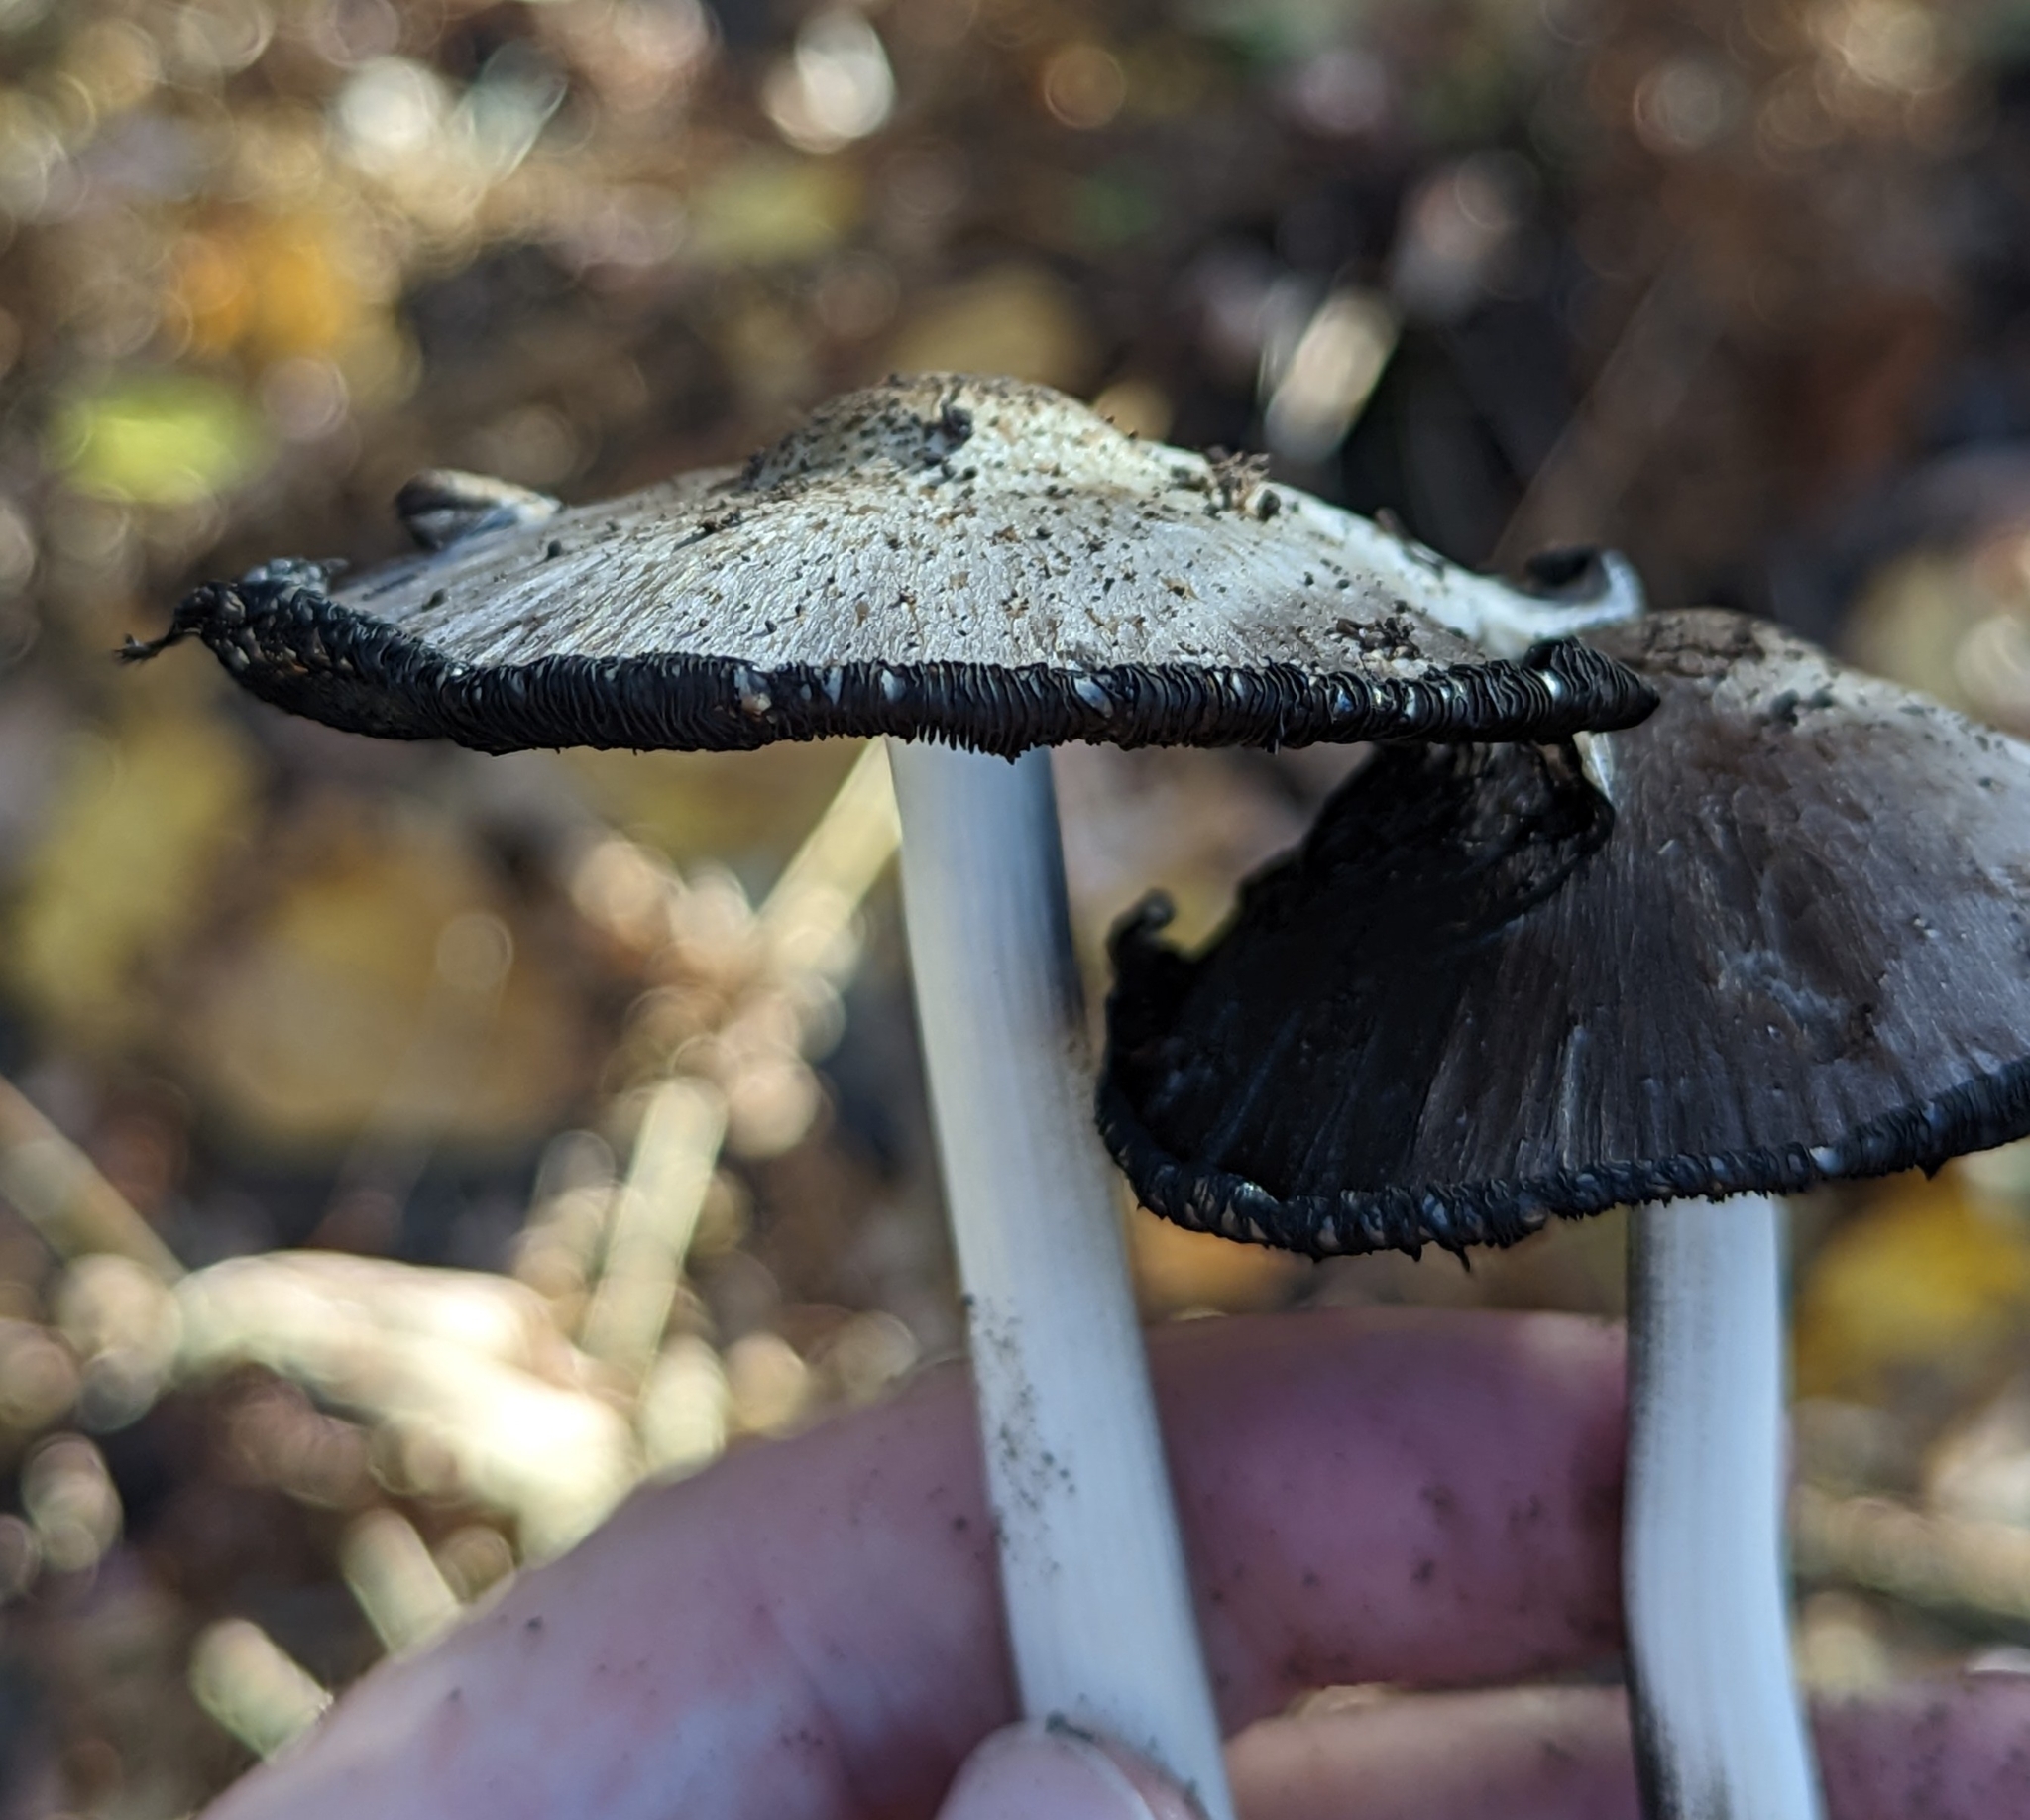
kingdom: Fungi
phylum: Basidiomycota
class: Agaricomycetes
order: Agaricales
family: Psathyrellaceae
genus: Coprinopsis
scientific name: Coprinopsis atramentaria
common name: Common ink-cap
